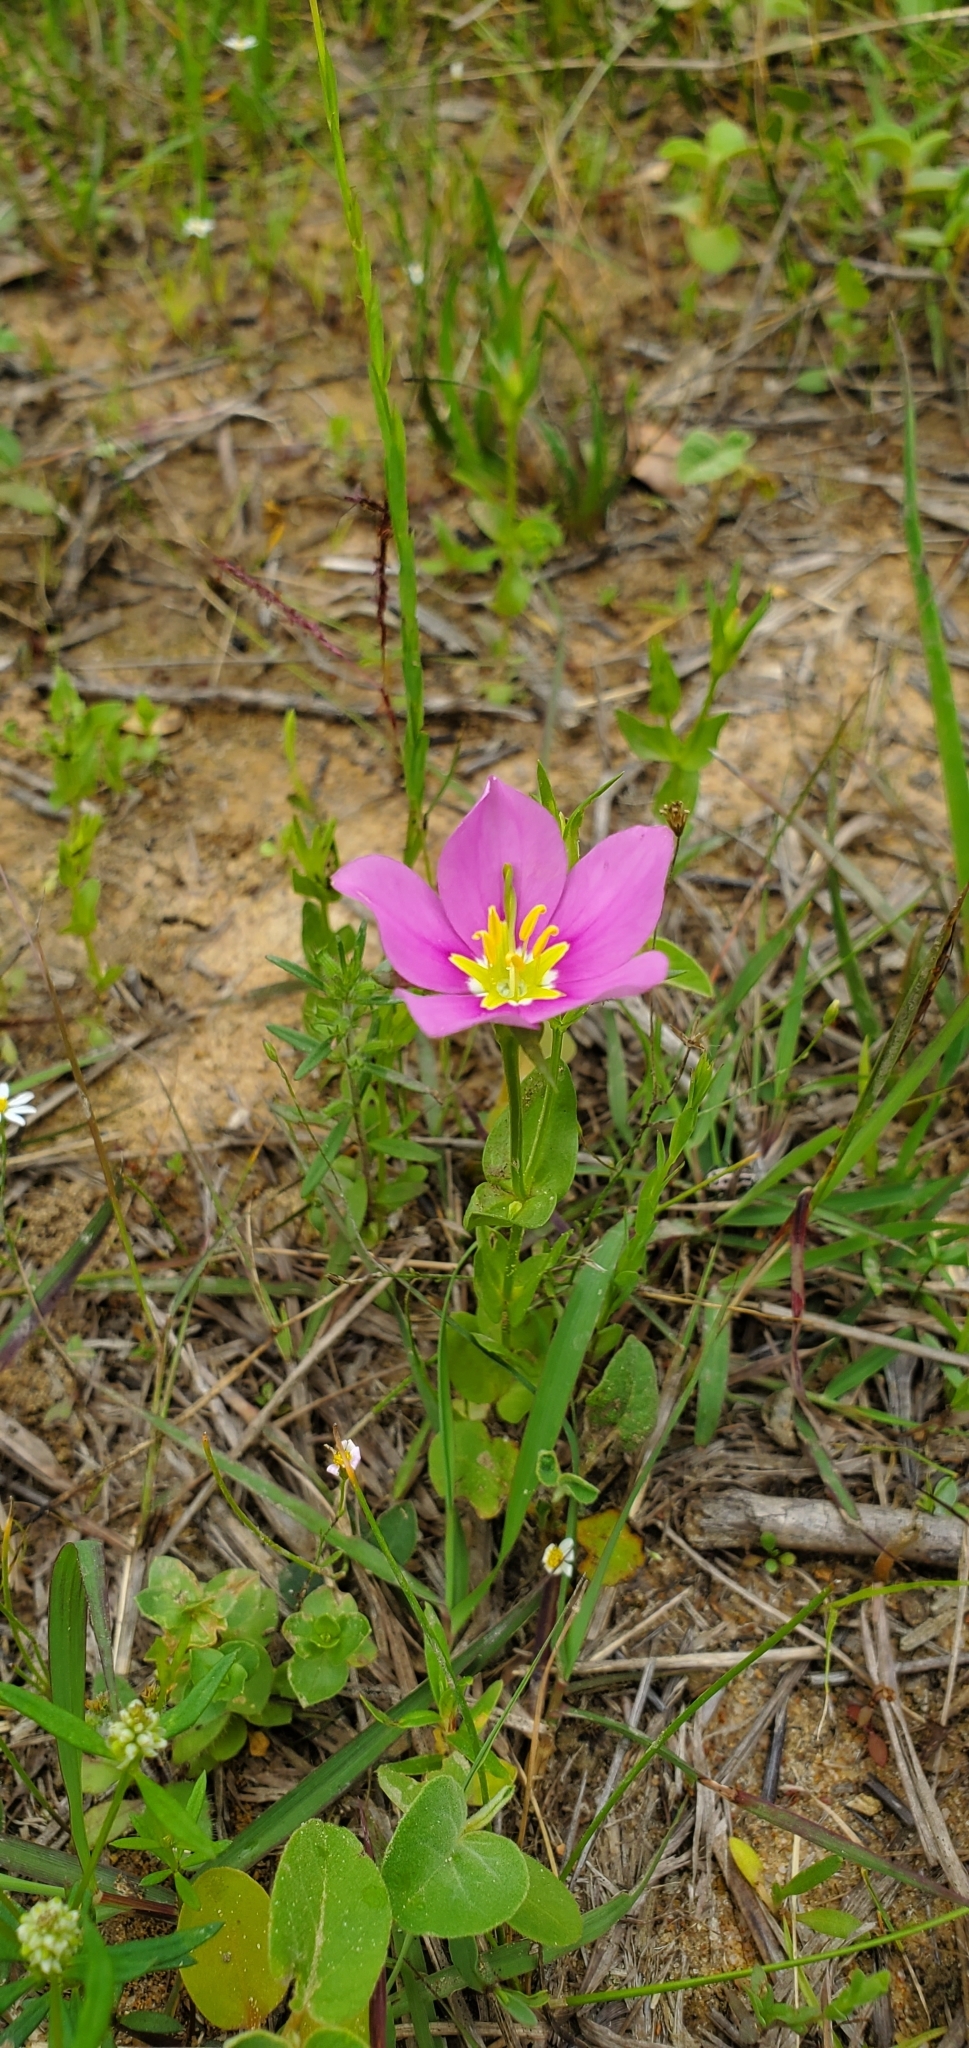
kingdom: Plantae
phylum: Tracheophyta
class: Magnoliopsida
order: Gentianales
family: Gentianaceae
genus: Sabatia
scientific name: Sabatia campestris
